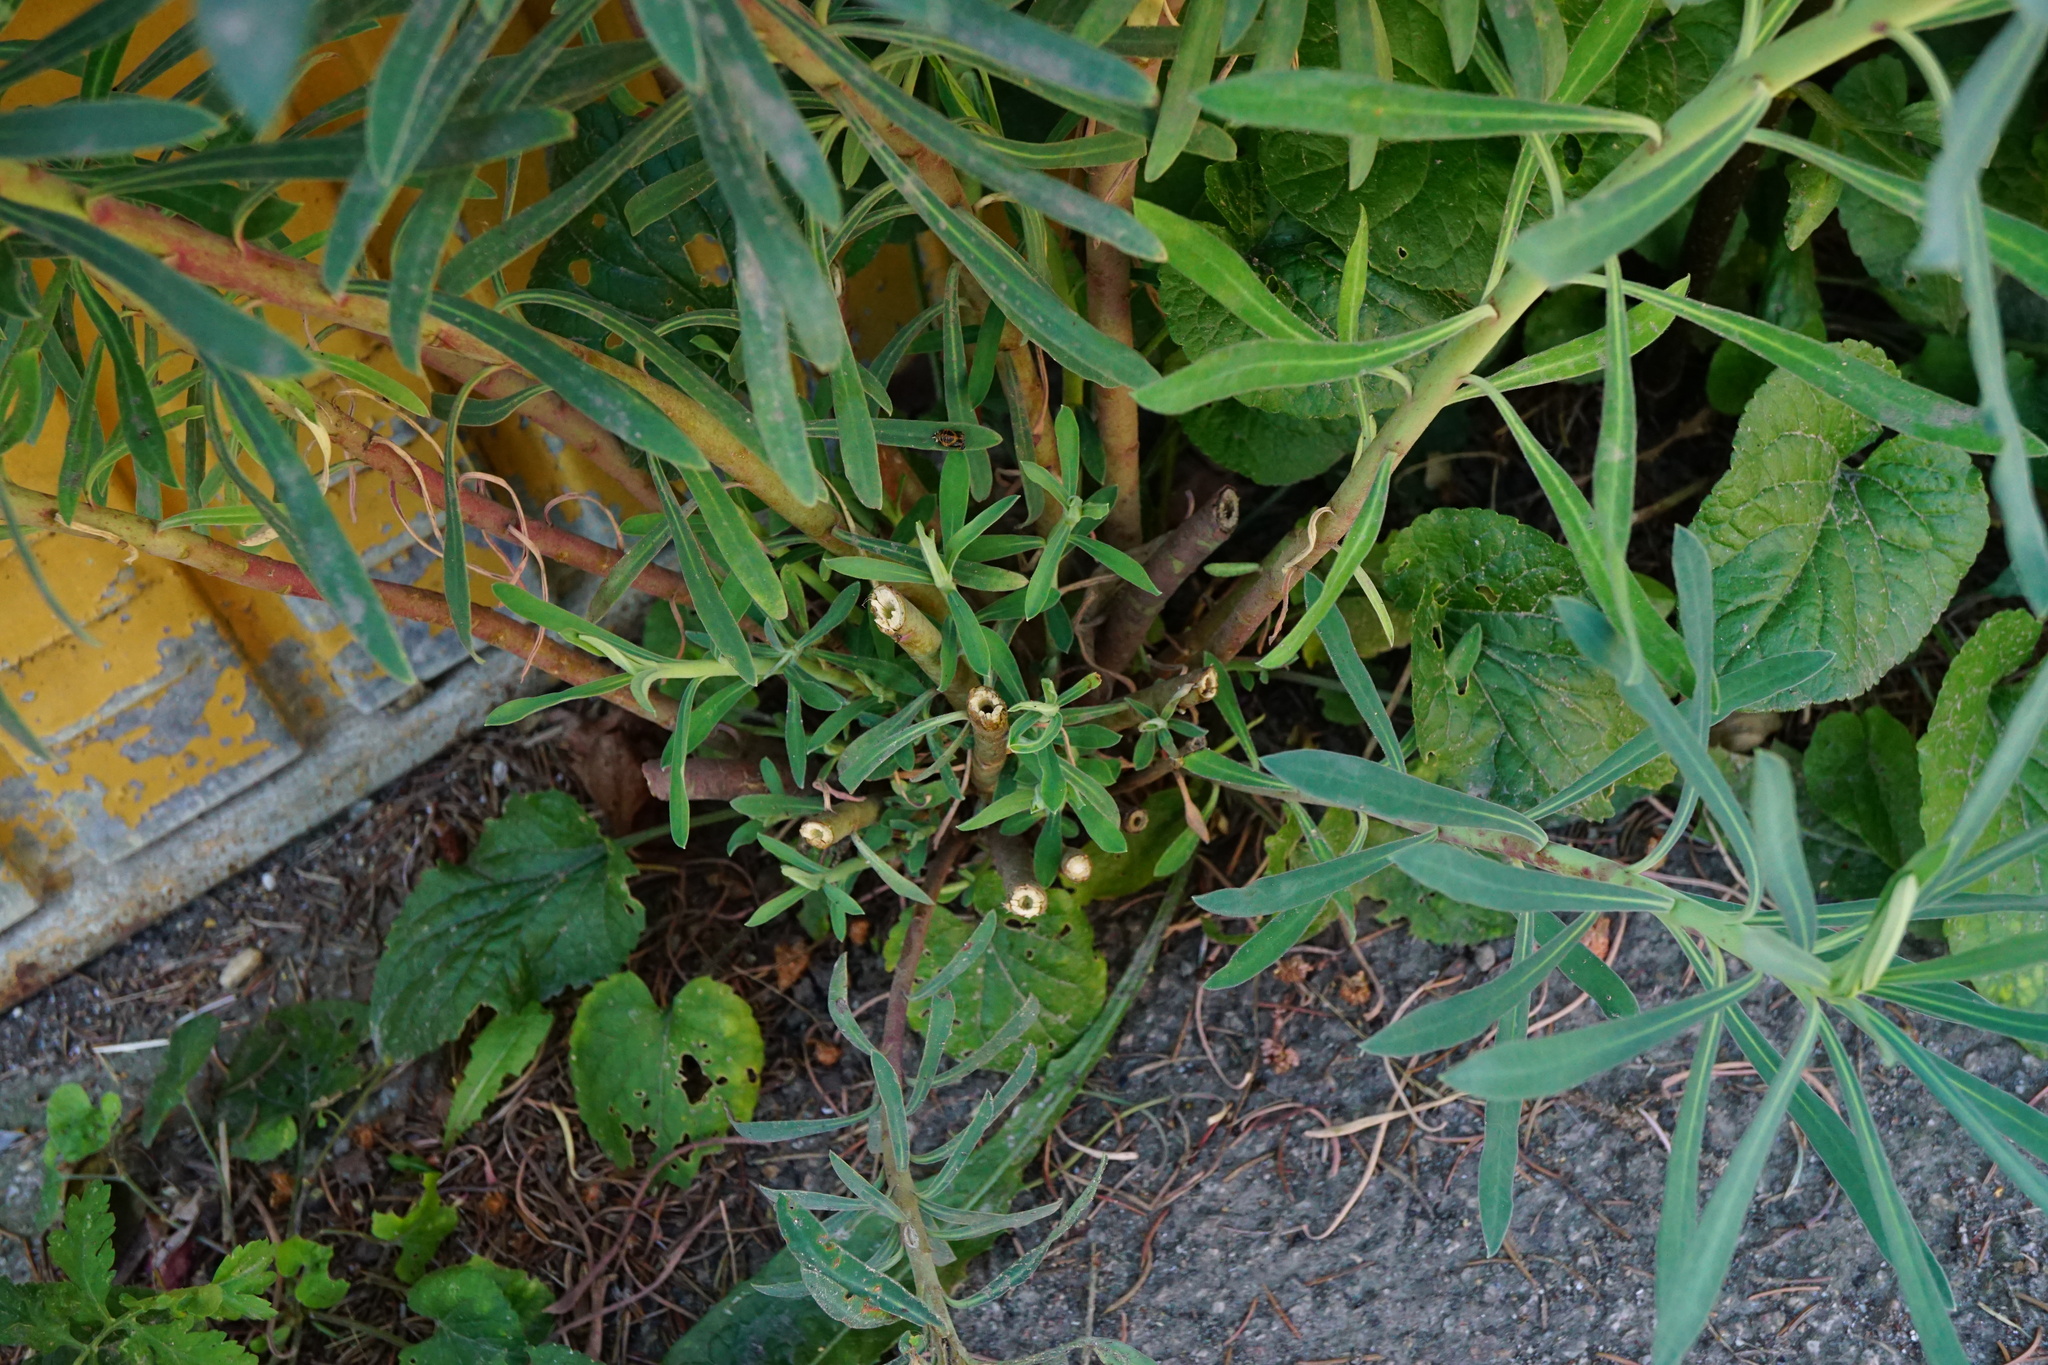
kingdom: Plantae
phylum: Tracheophyta
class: Magnoliopsida
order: Malpighiales
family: Euphorbiaceae
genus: Euphorbia
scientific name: Euphorbia characias
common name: Mediterranean spurge
